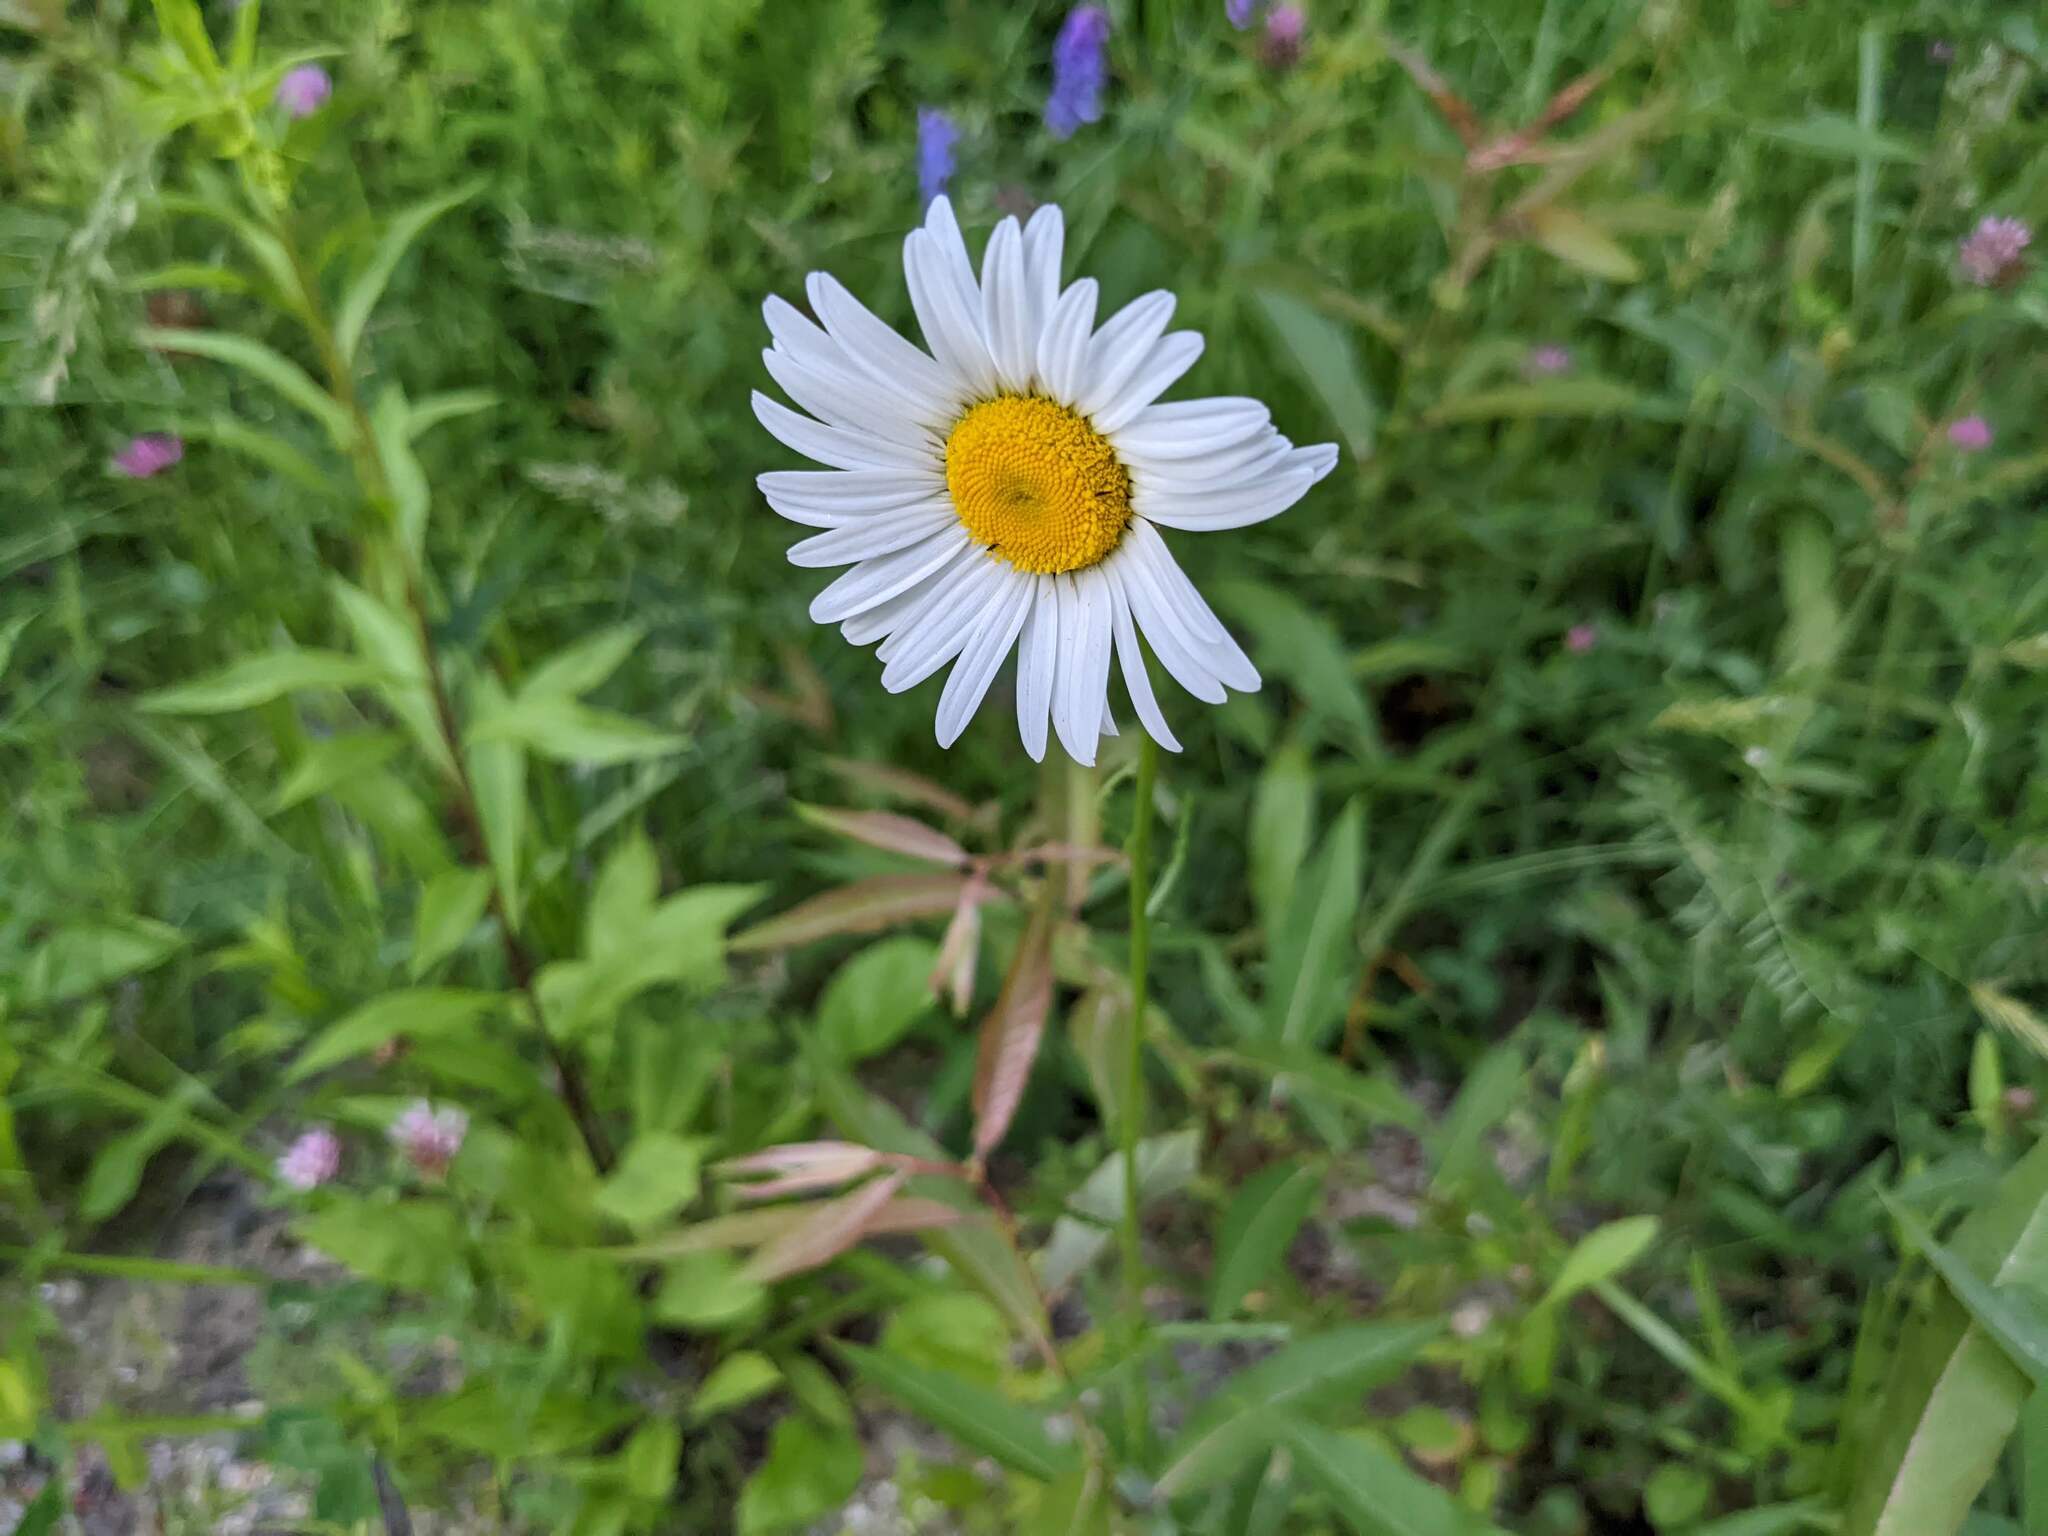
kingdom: Plantae
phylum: Tracheophyta
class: Magnoliopsida
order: Asterales
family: Asteraceae
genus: Leucanthemum
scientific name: Leucanthemum vulgare
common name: Oxeye daisy
